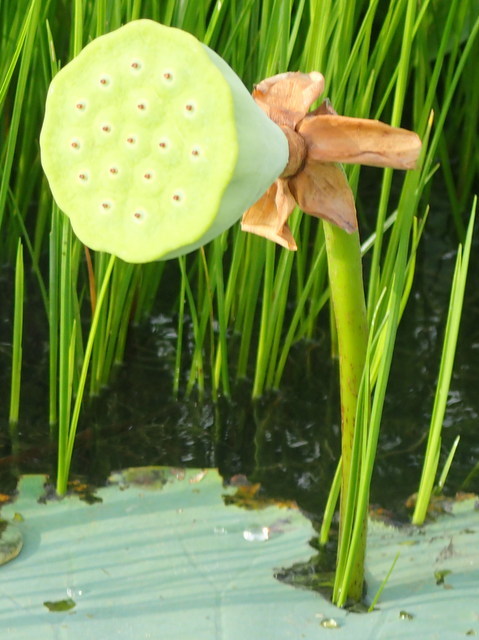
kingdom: Plantae
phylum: Tracheophyta
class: Magnoliopsida
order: Proteales
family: Nelumbonaceae
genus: Nelumbo
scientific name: Nelumbo lutea
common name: American lotus
